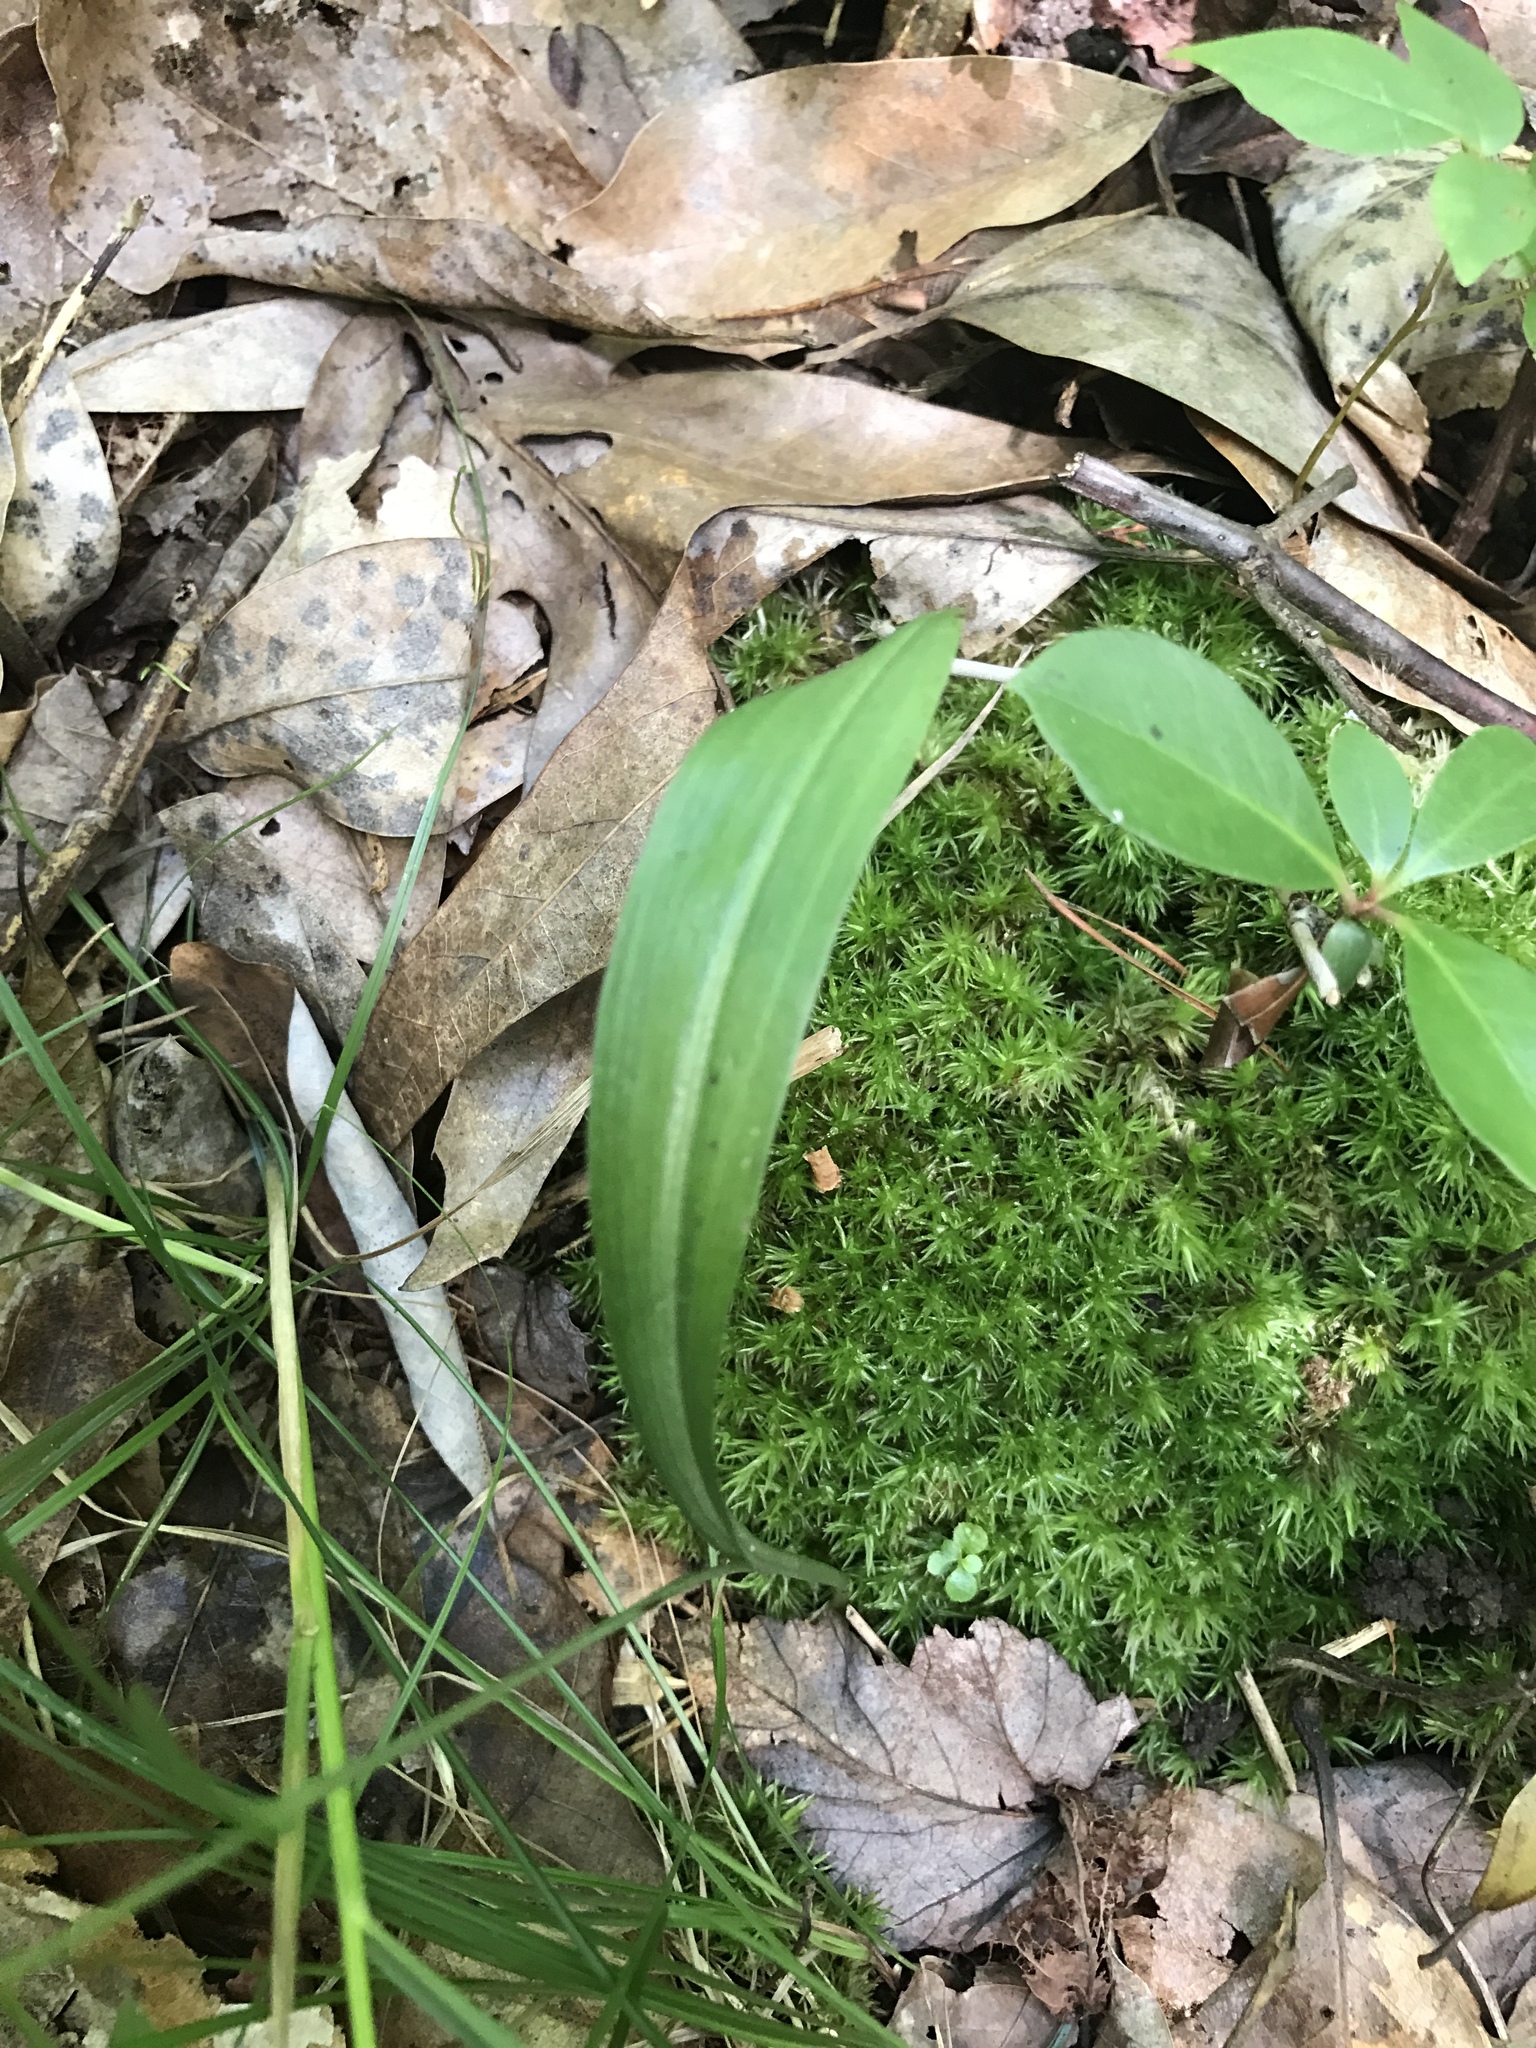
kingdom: Plantae
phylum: Tracheophyta
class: Liliopsida
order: Asparagales
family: Orchidaceae
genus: Platanthera
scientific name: Platanthera clavellata
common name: Club-spur orchid
